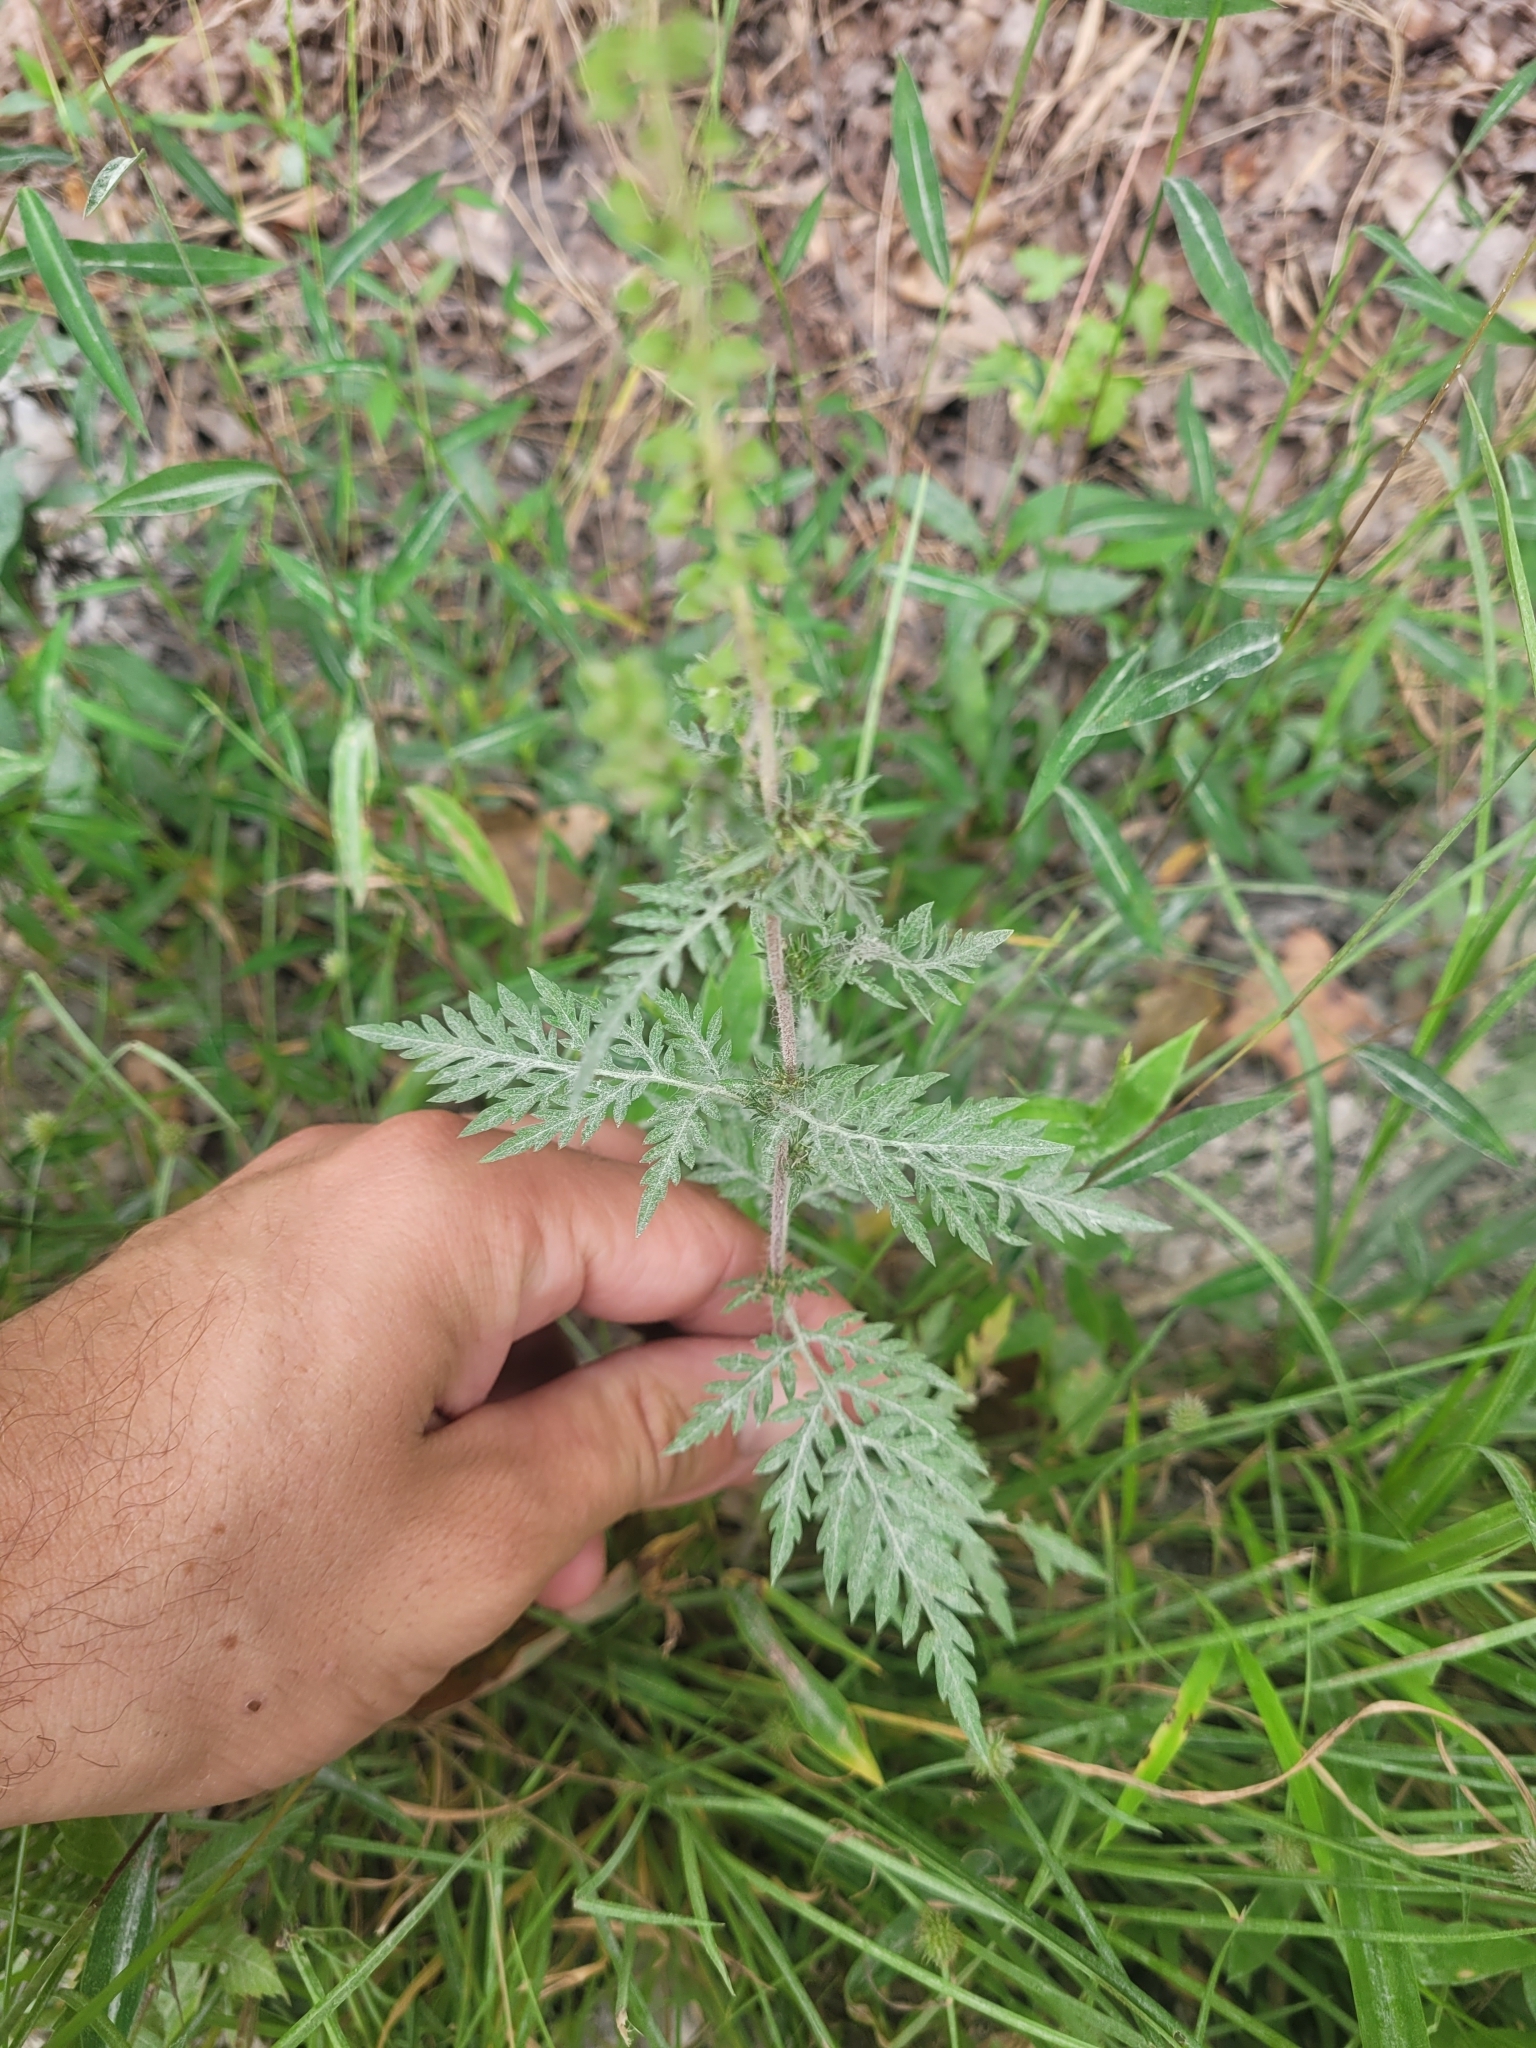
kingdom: Plantae
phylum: Tracheophyta
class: Magnoliopsida
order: Asterales
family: Asteraceae
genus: Ambrosia
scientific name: Ambrosia artemisiifolia
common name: Annual ragweed
